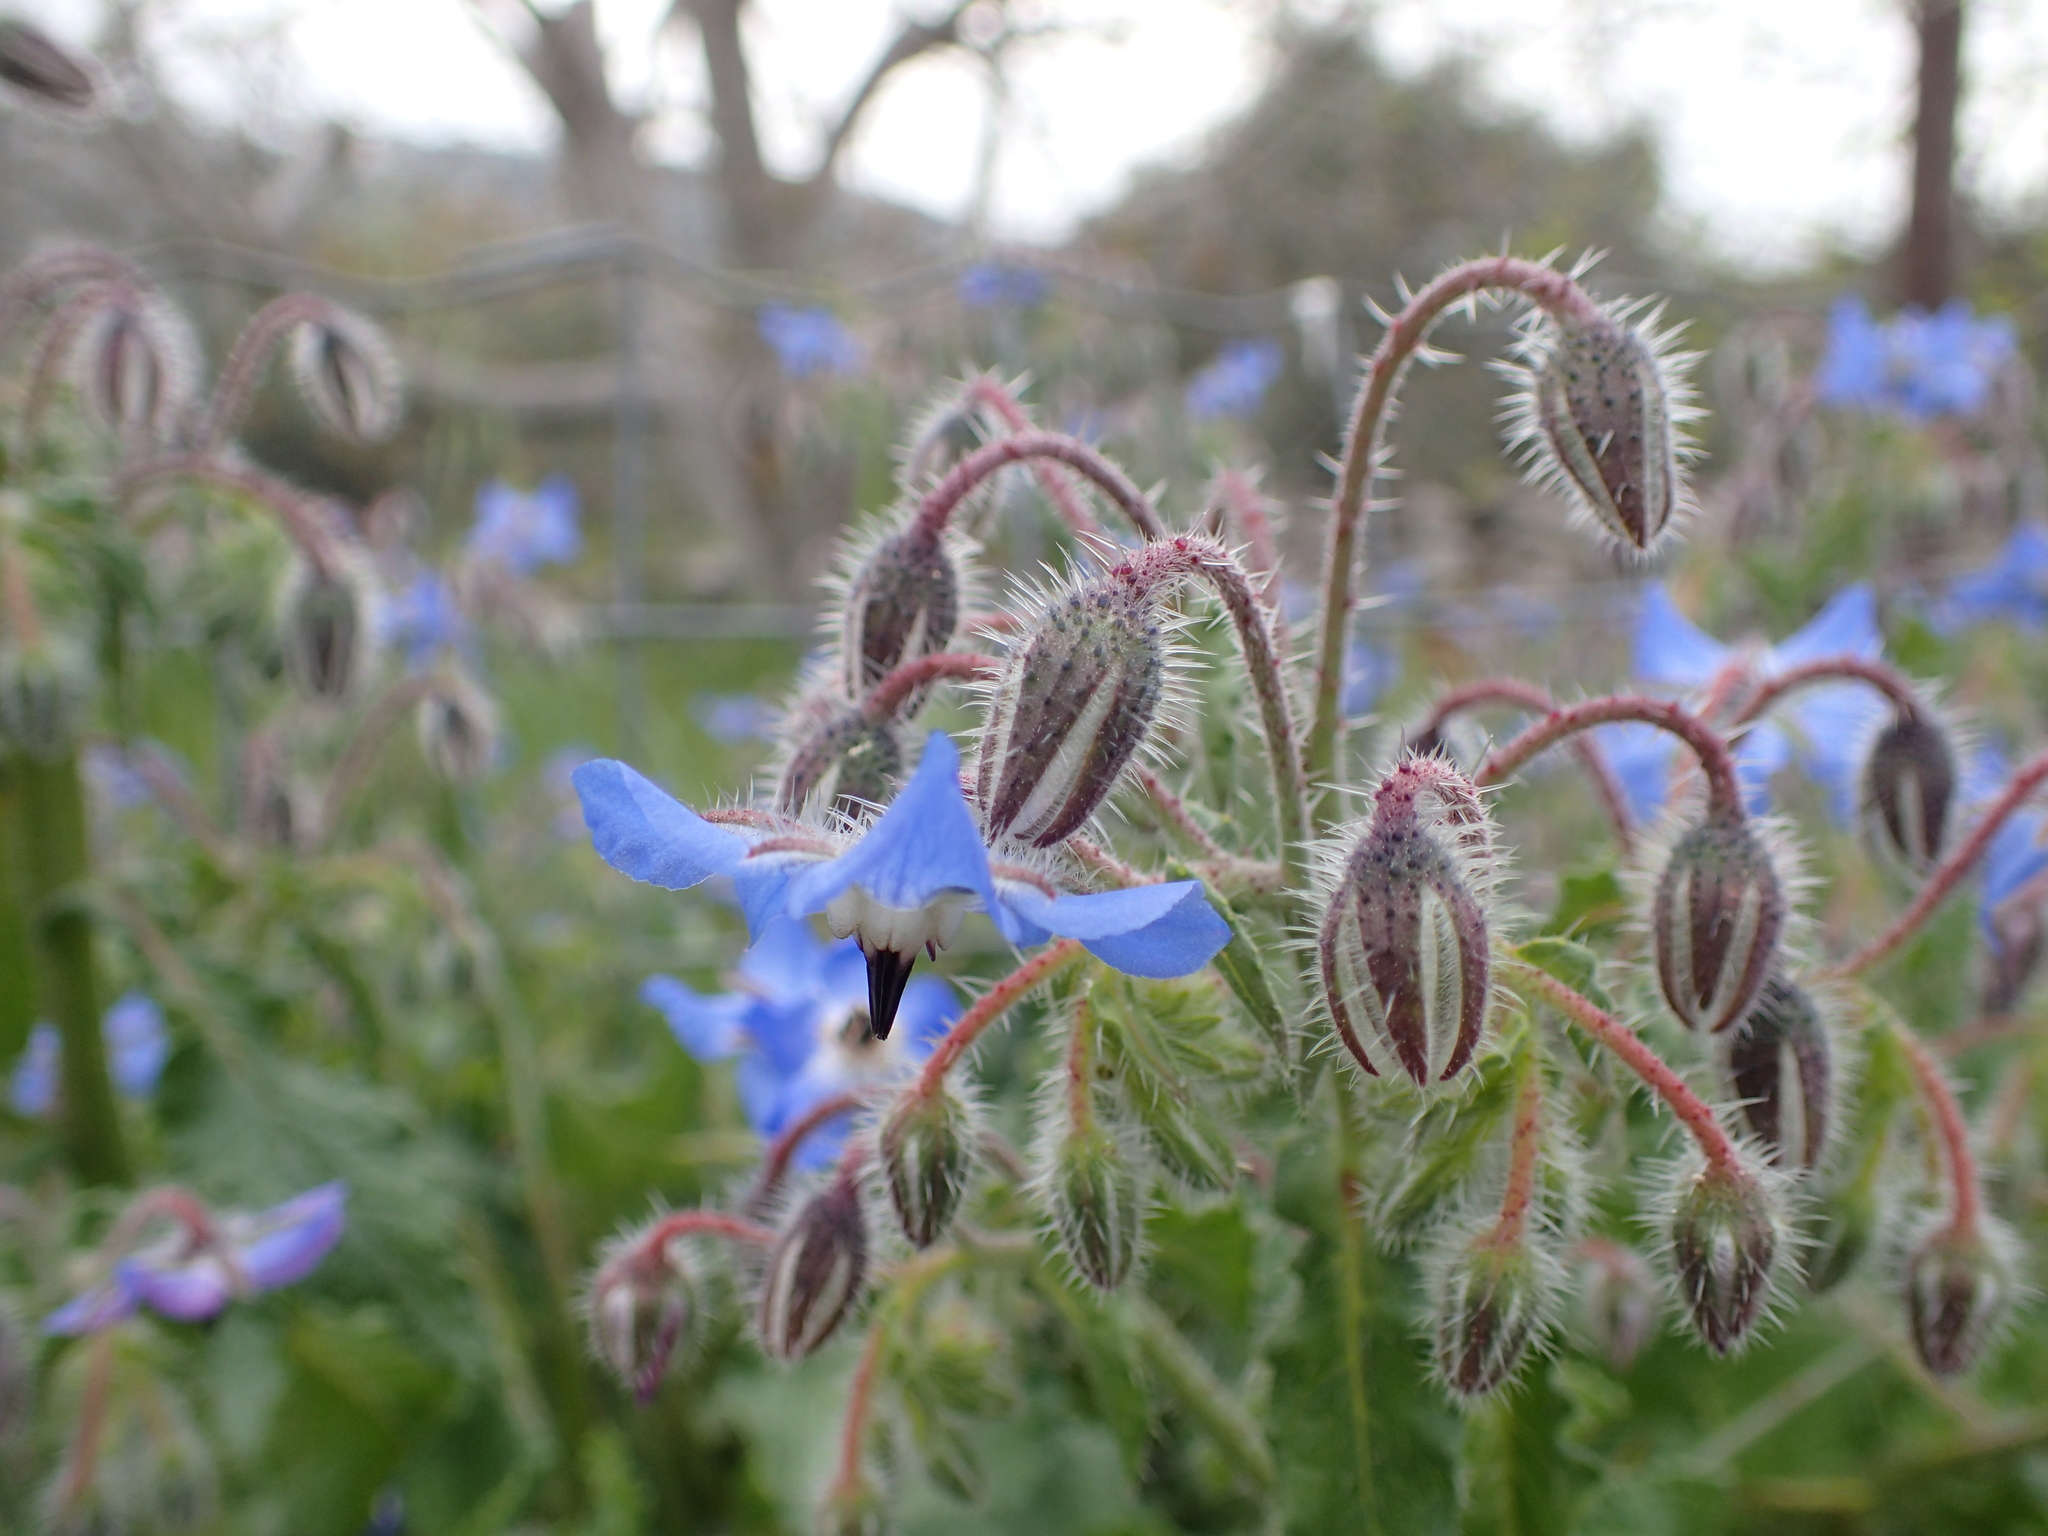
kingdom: Plantae
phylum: Tracheophyta
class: Magnoliopsida
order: Boraginales
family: Boraginaceae
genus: Borago
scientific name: Borago officinalis
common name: Borage
